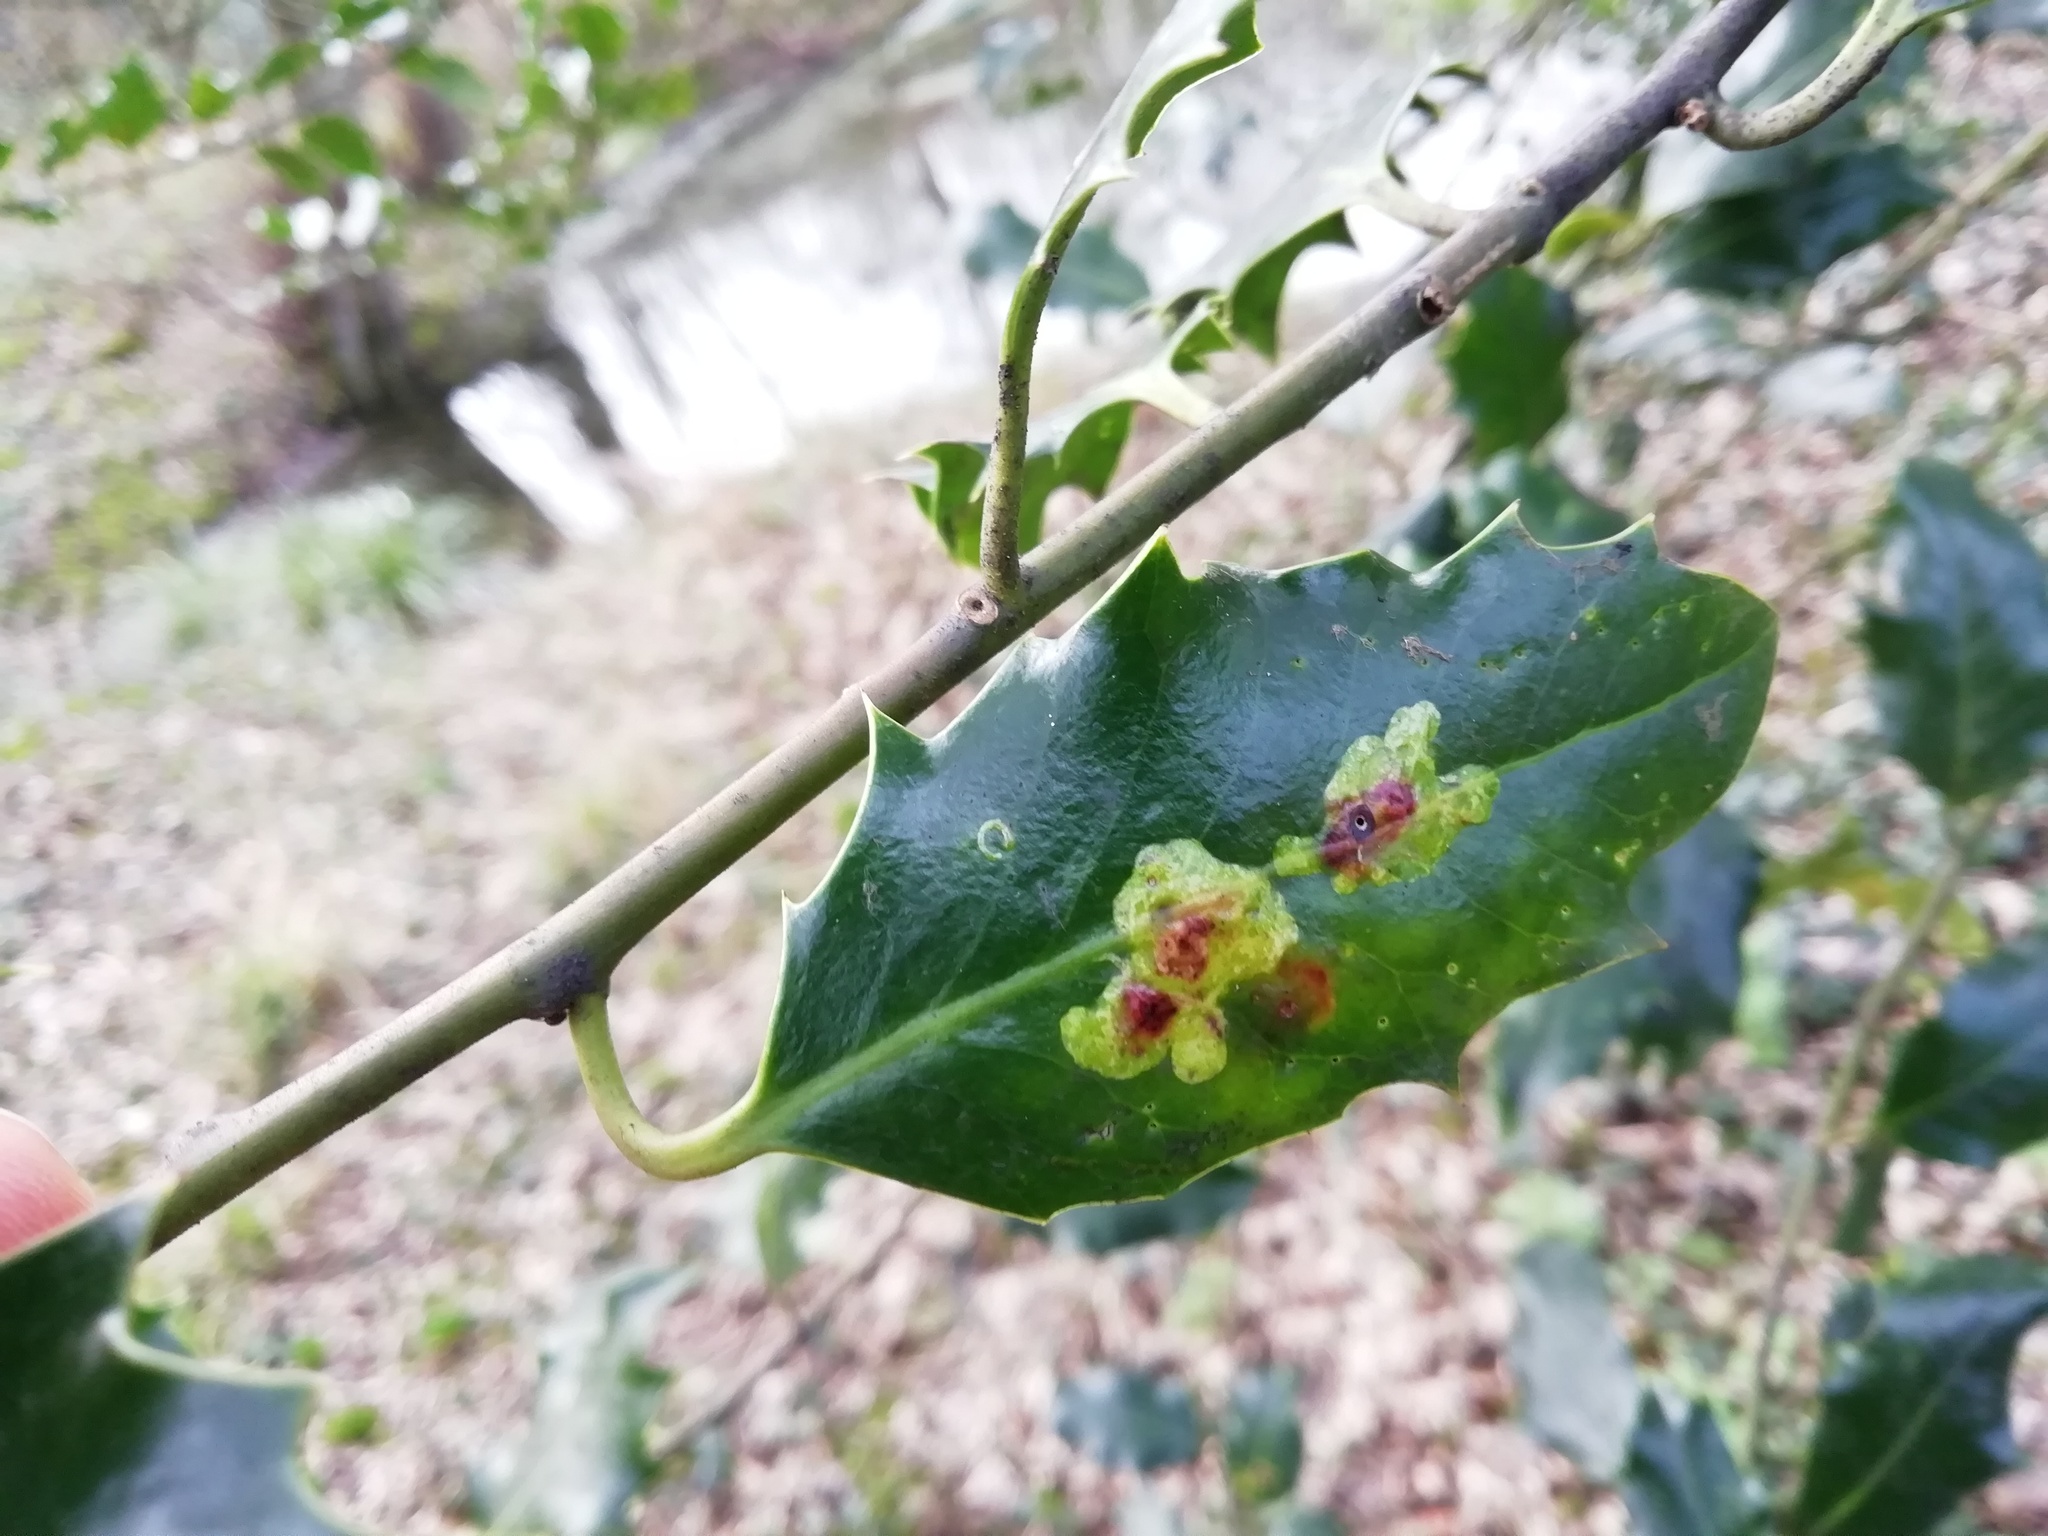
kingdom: Animalia
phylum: Arthropoda
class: Insecta
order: Diptera
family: Agromyzidae
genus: Phytomyza
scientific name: Phytomyza ilicis
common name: Holly leafminer
